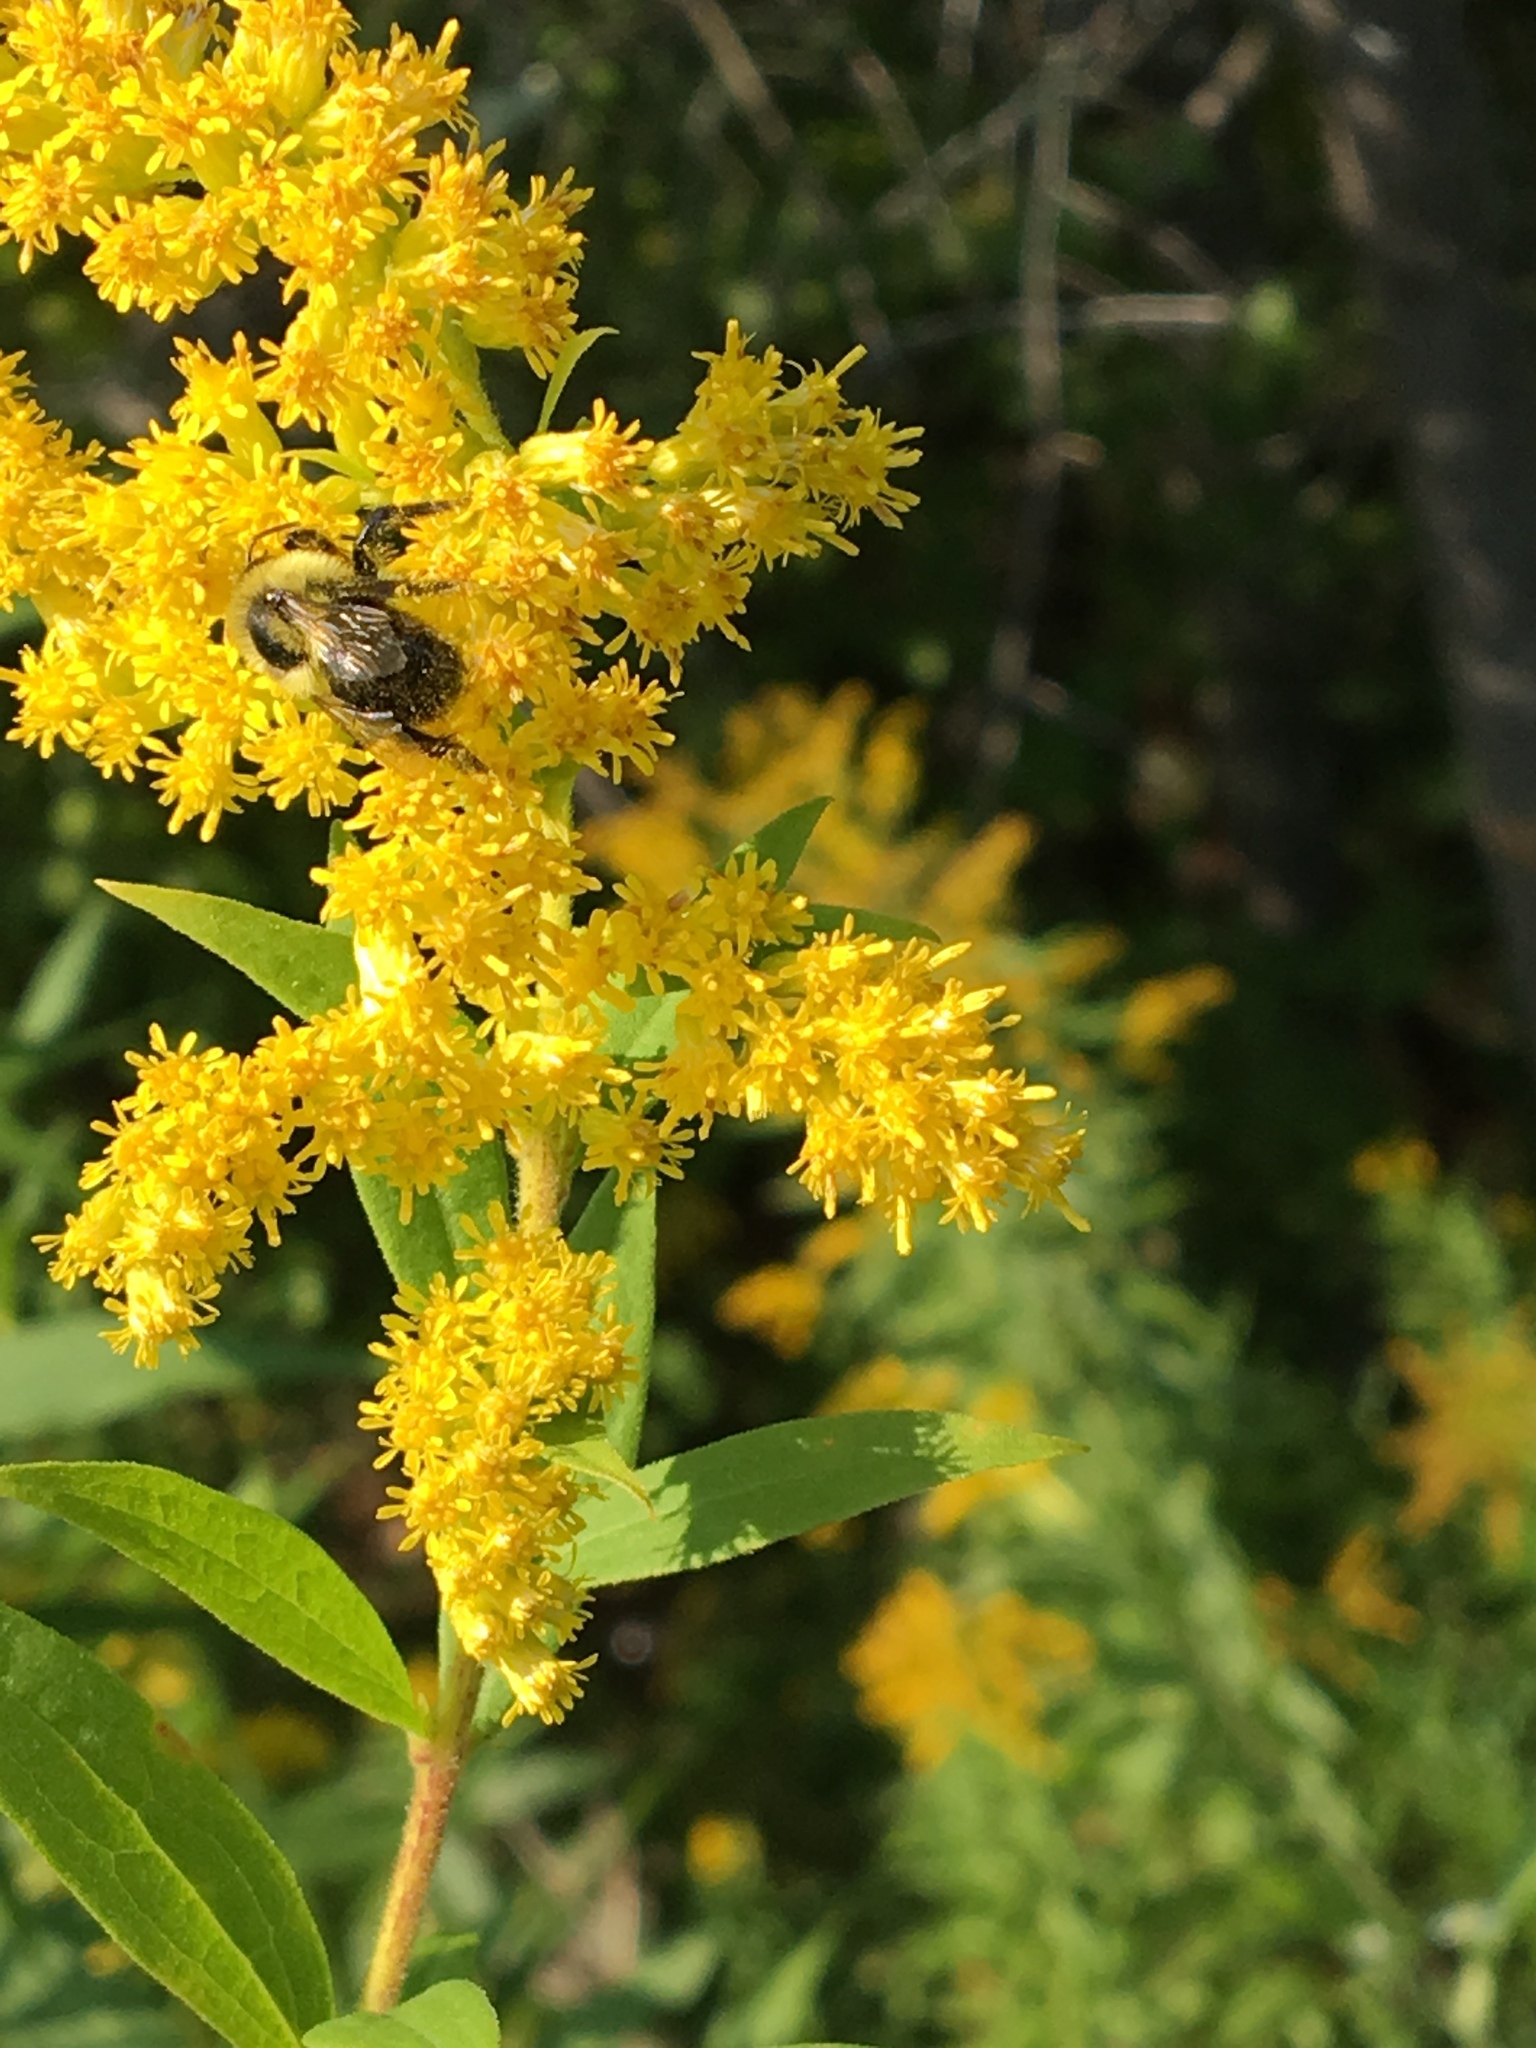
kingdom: Animalia
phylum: Arthropoda
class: Insecta
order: Hymenoptera
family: Apidae
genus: Bombus
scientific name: Bombus impatiens
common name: Common eastern bumble bee
